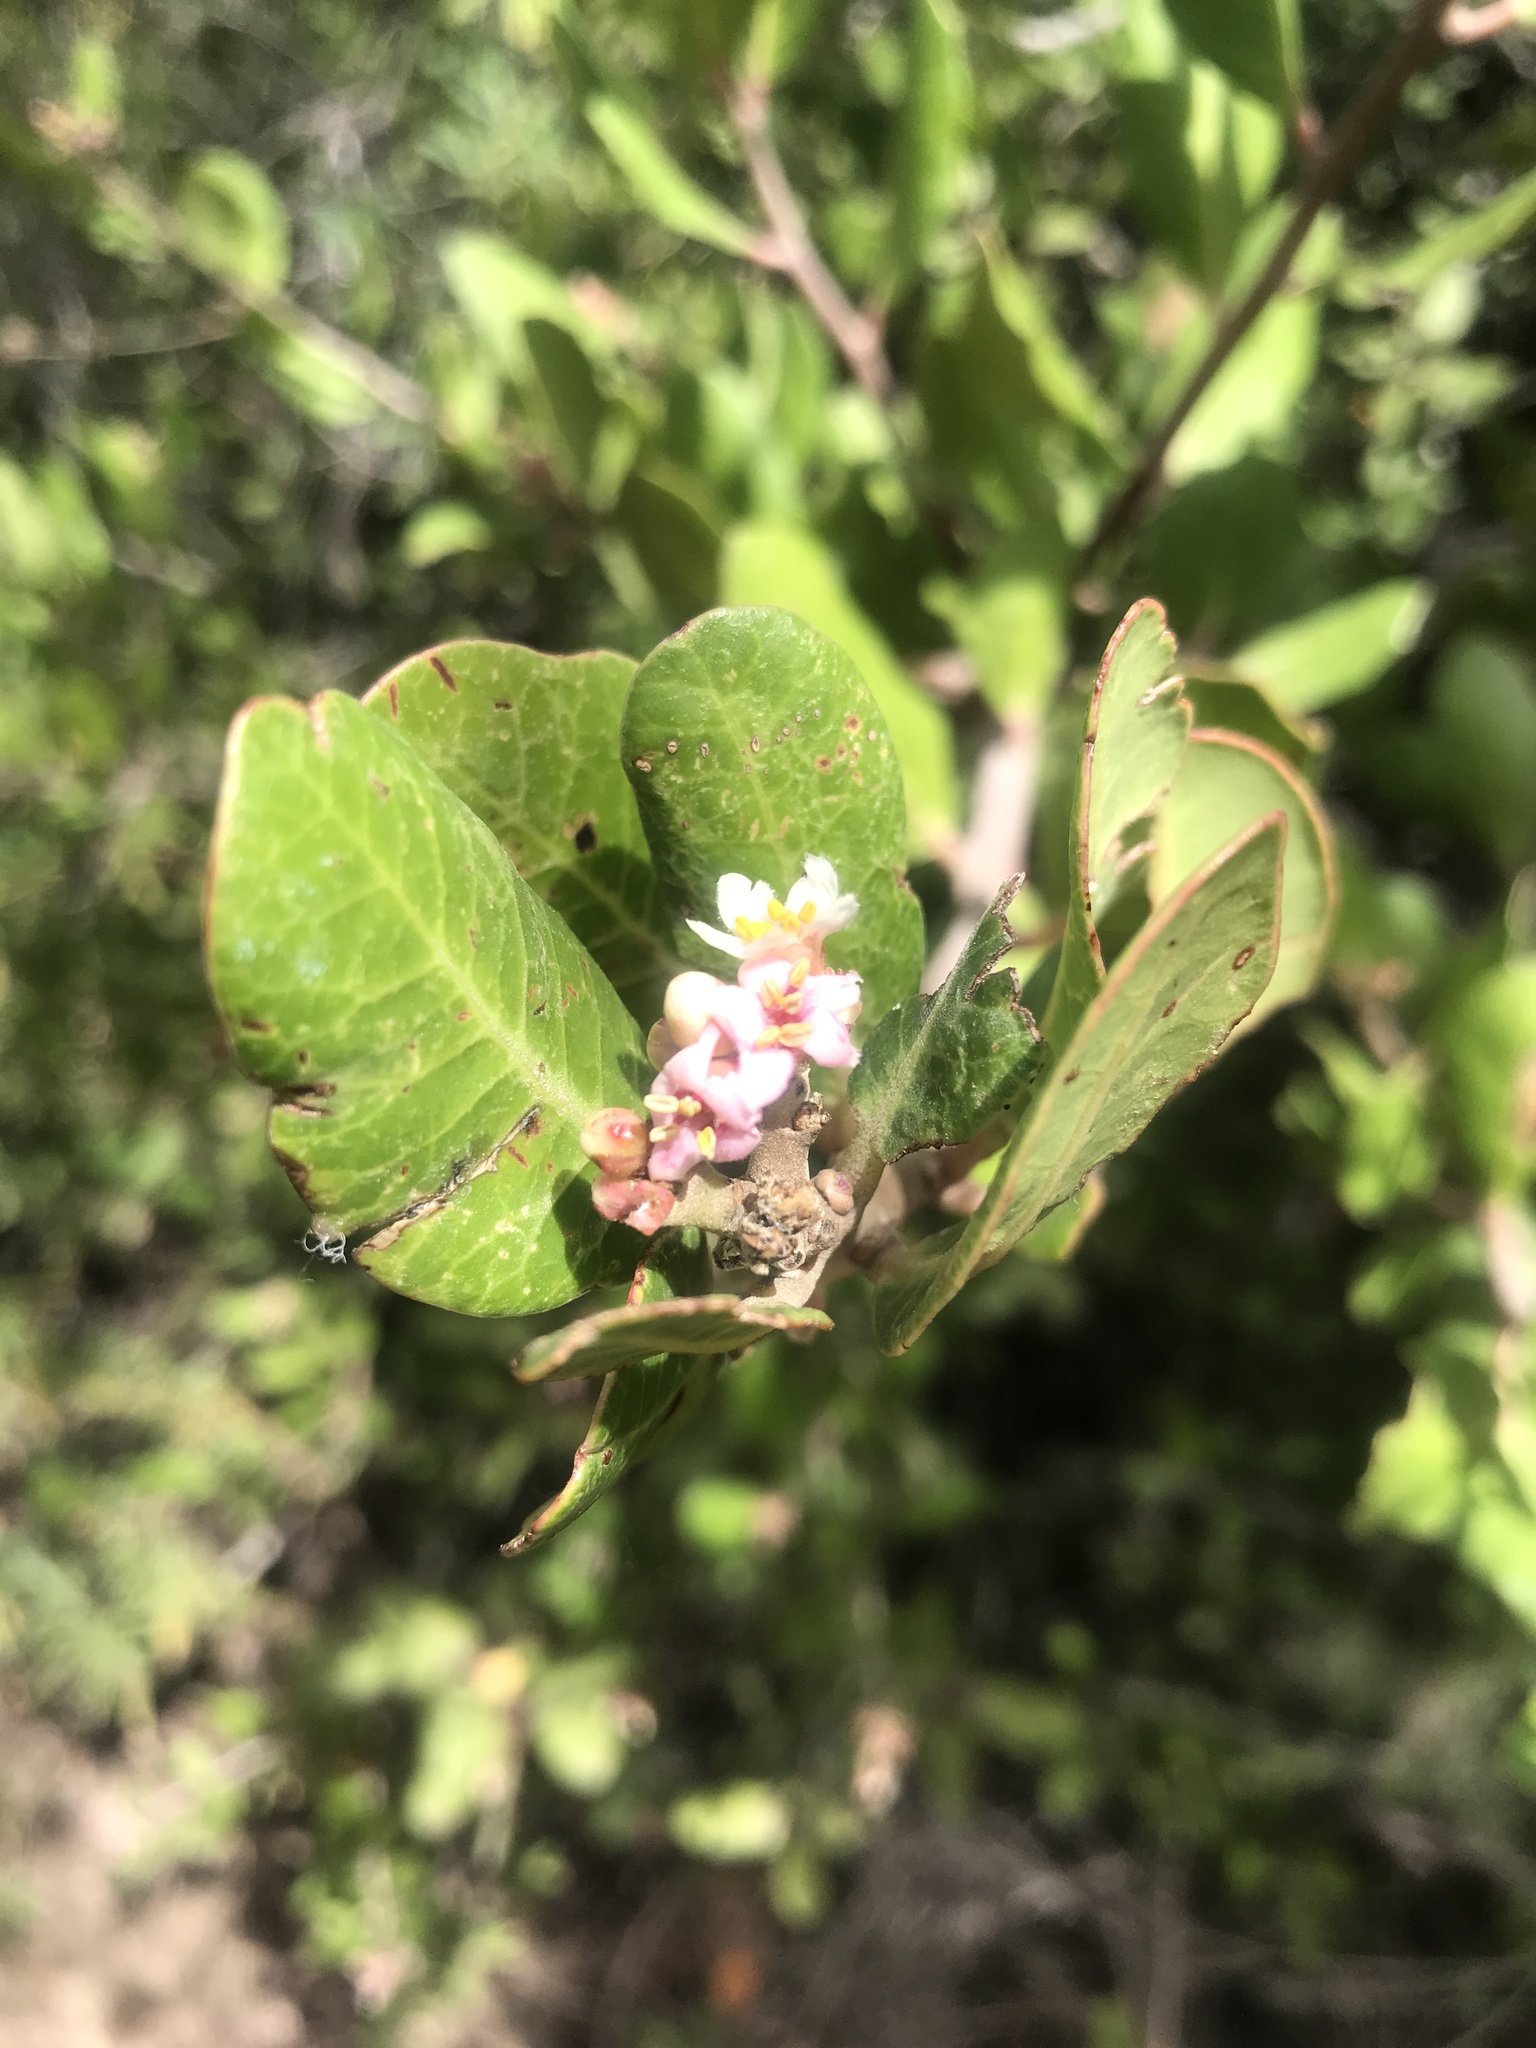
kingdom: Plantae
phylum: Tracheophyta
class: Magnoliopsida
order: Sapindales
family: Anacardiaceae
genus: Rhus
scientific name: Rhus integrifolia
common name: Lemonade sumac
